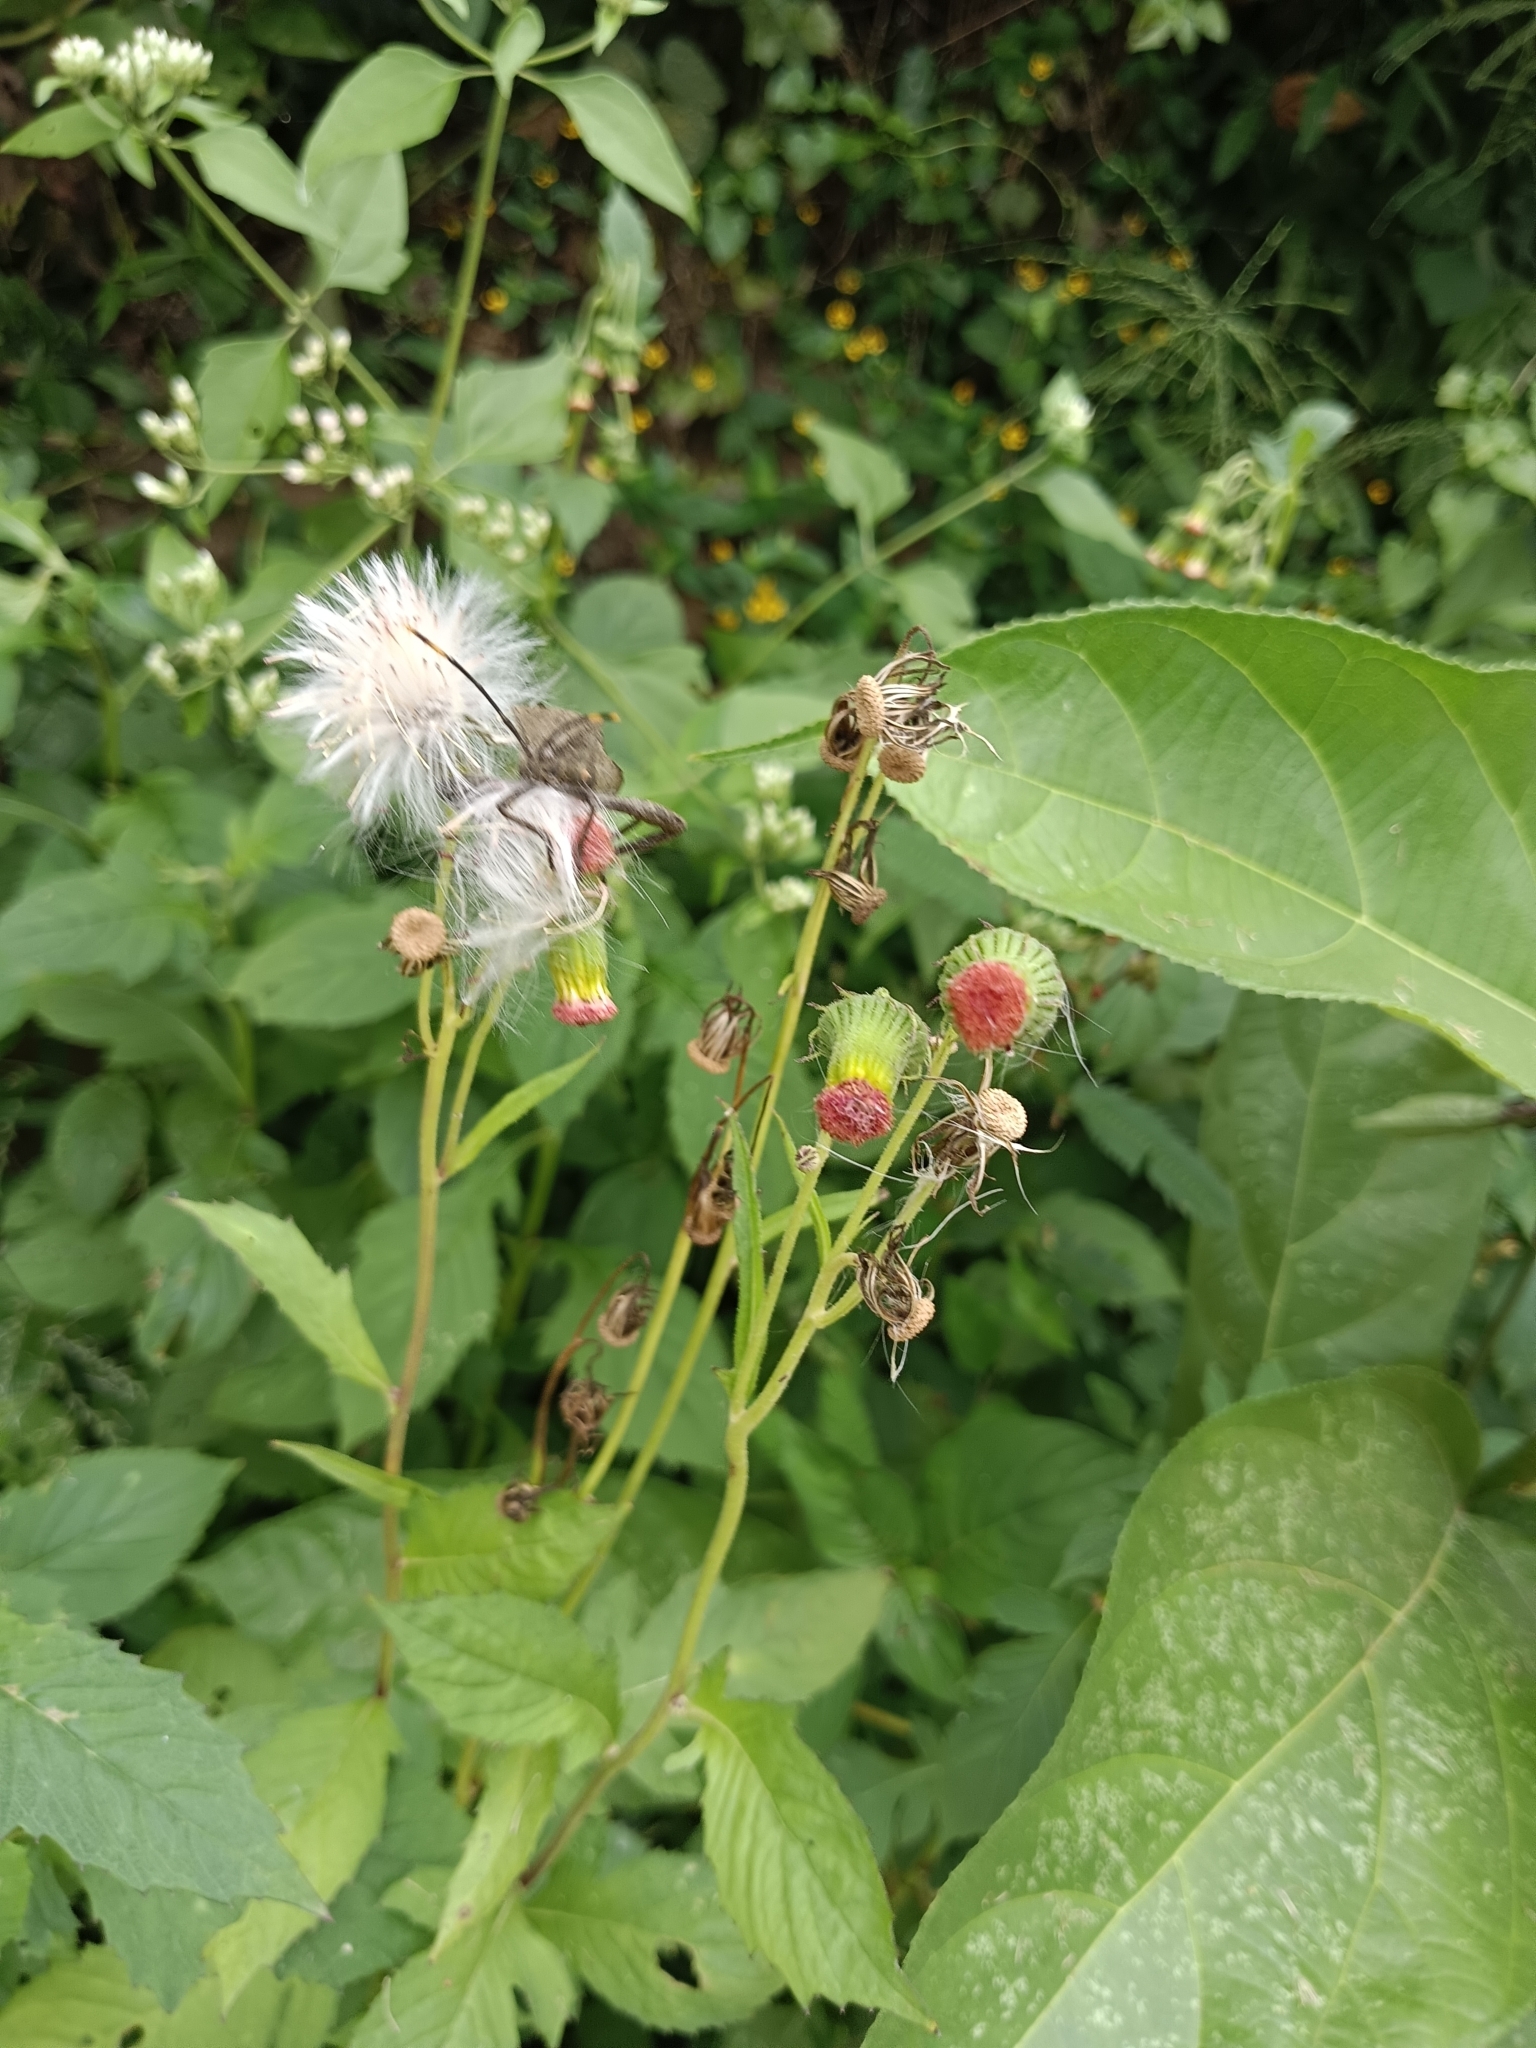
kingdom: Plantae
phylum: Tracheophyta
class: Magnoliopsida
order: Asterales
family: Asteraceae
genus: Crassocephalum
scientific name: Crassocephalum crepidioides
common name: Redflower ragleaf
